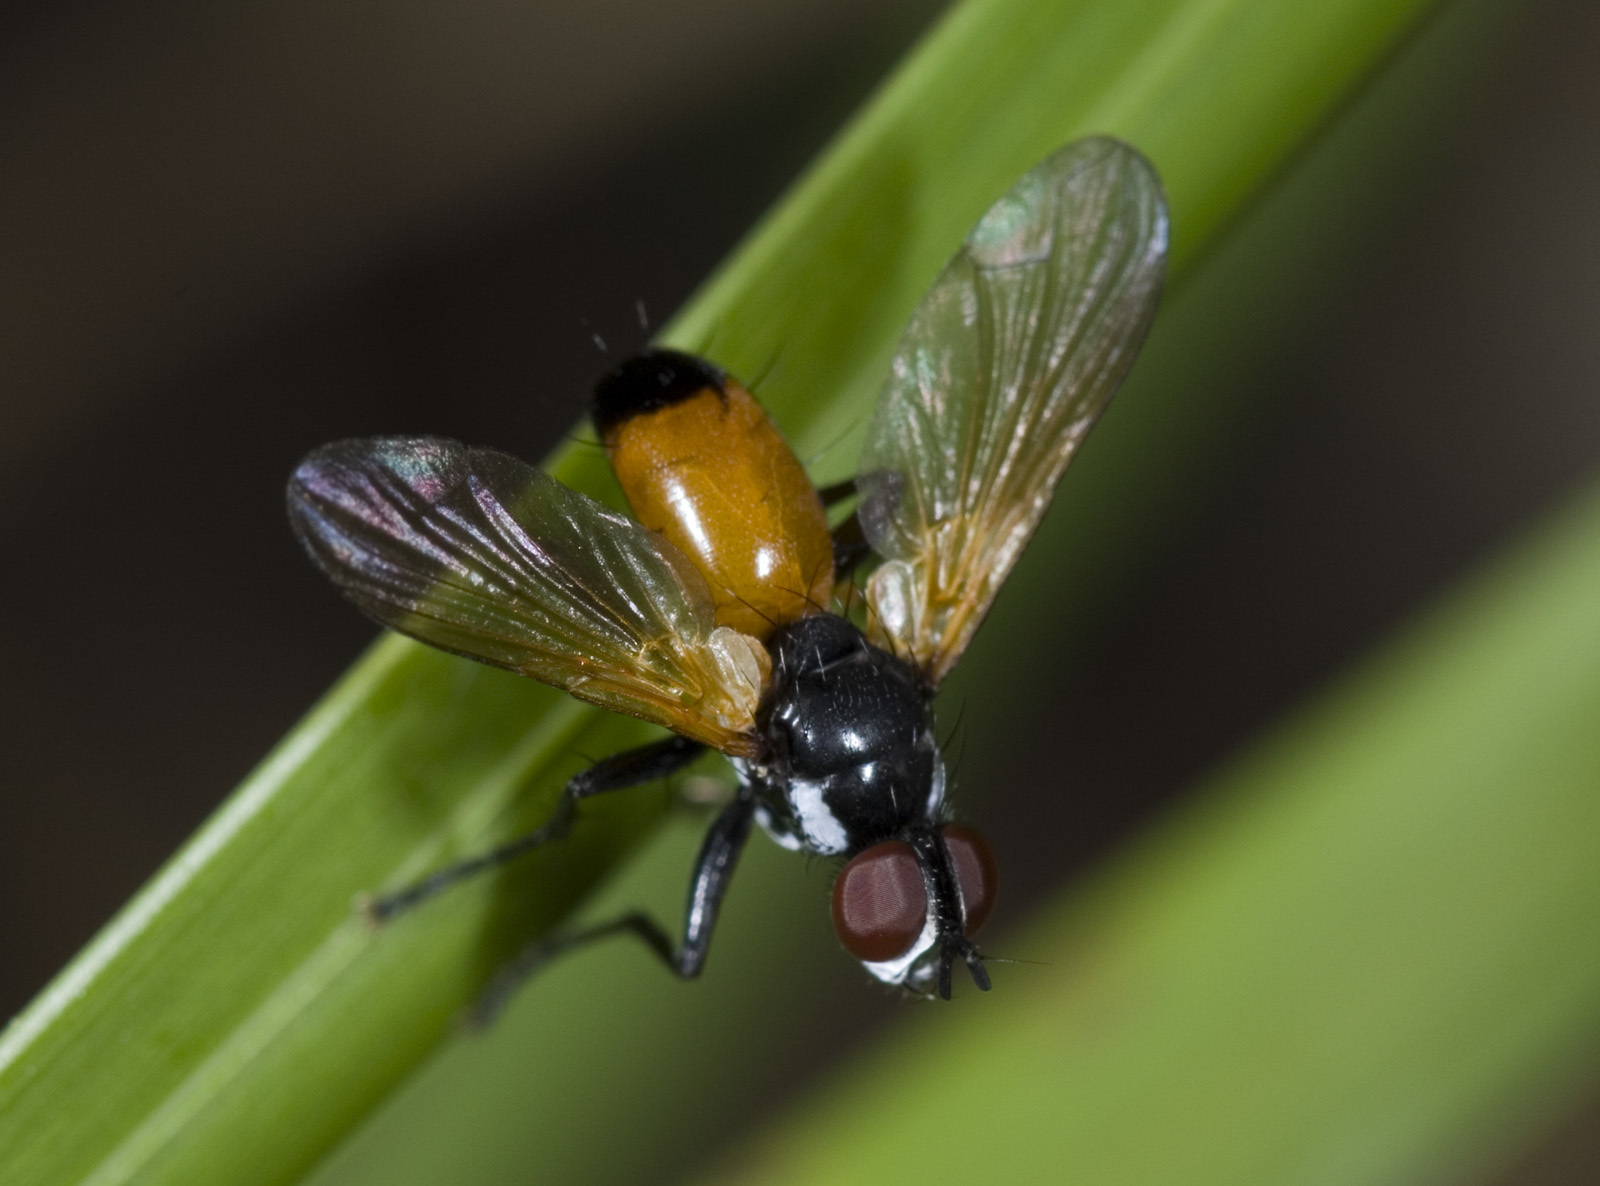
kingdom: Animalia
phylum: Arthropoda
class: Insecta
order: Diptera
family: Tachinidae
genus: Huttonobesseria
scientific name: Huttonobesseria verecunda
